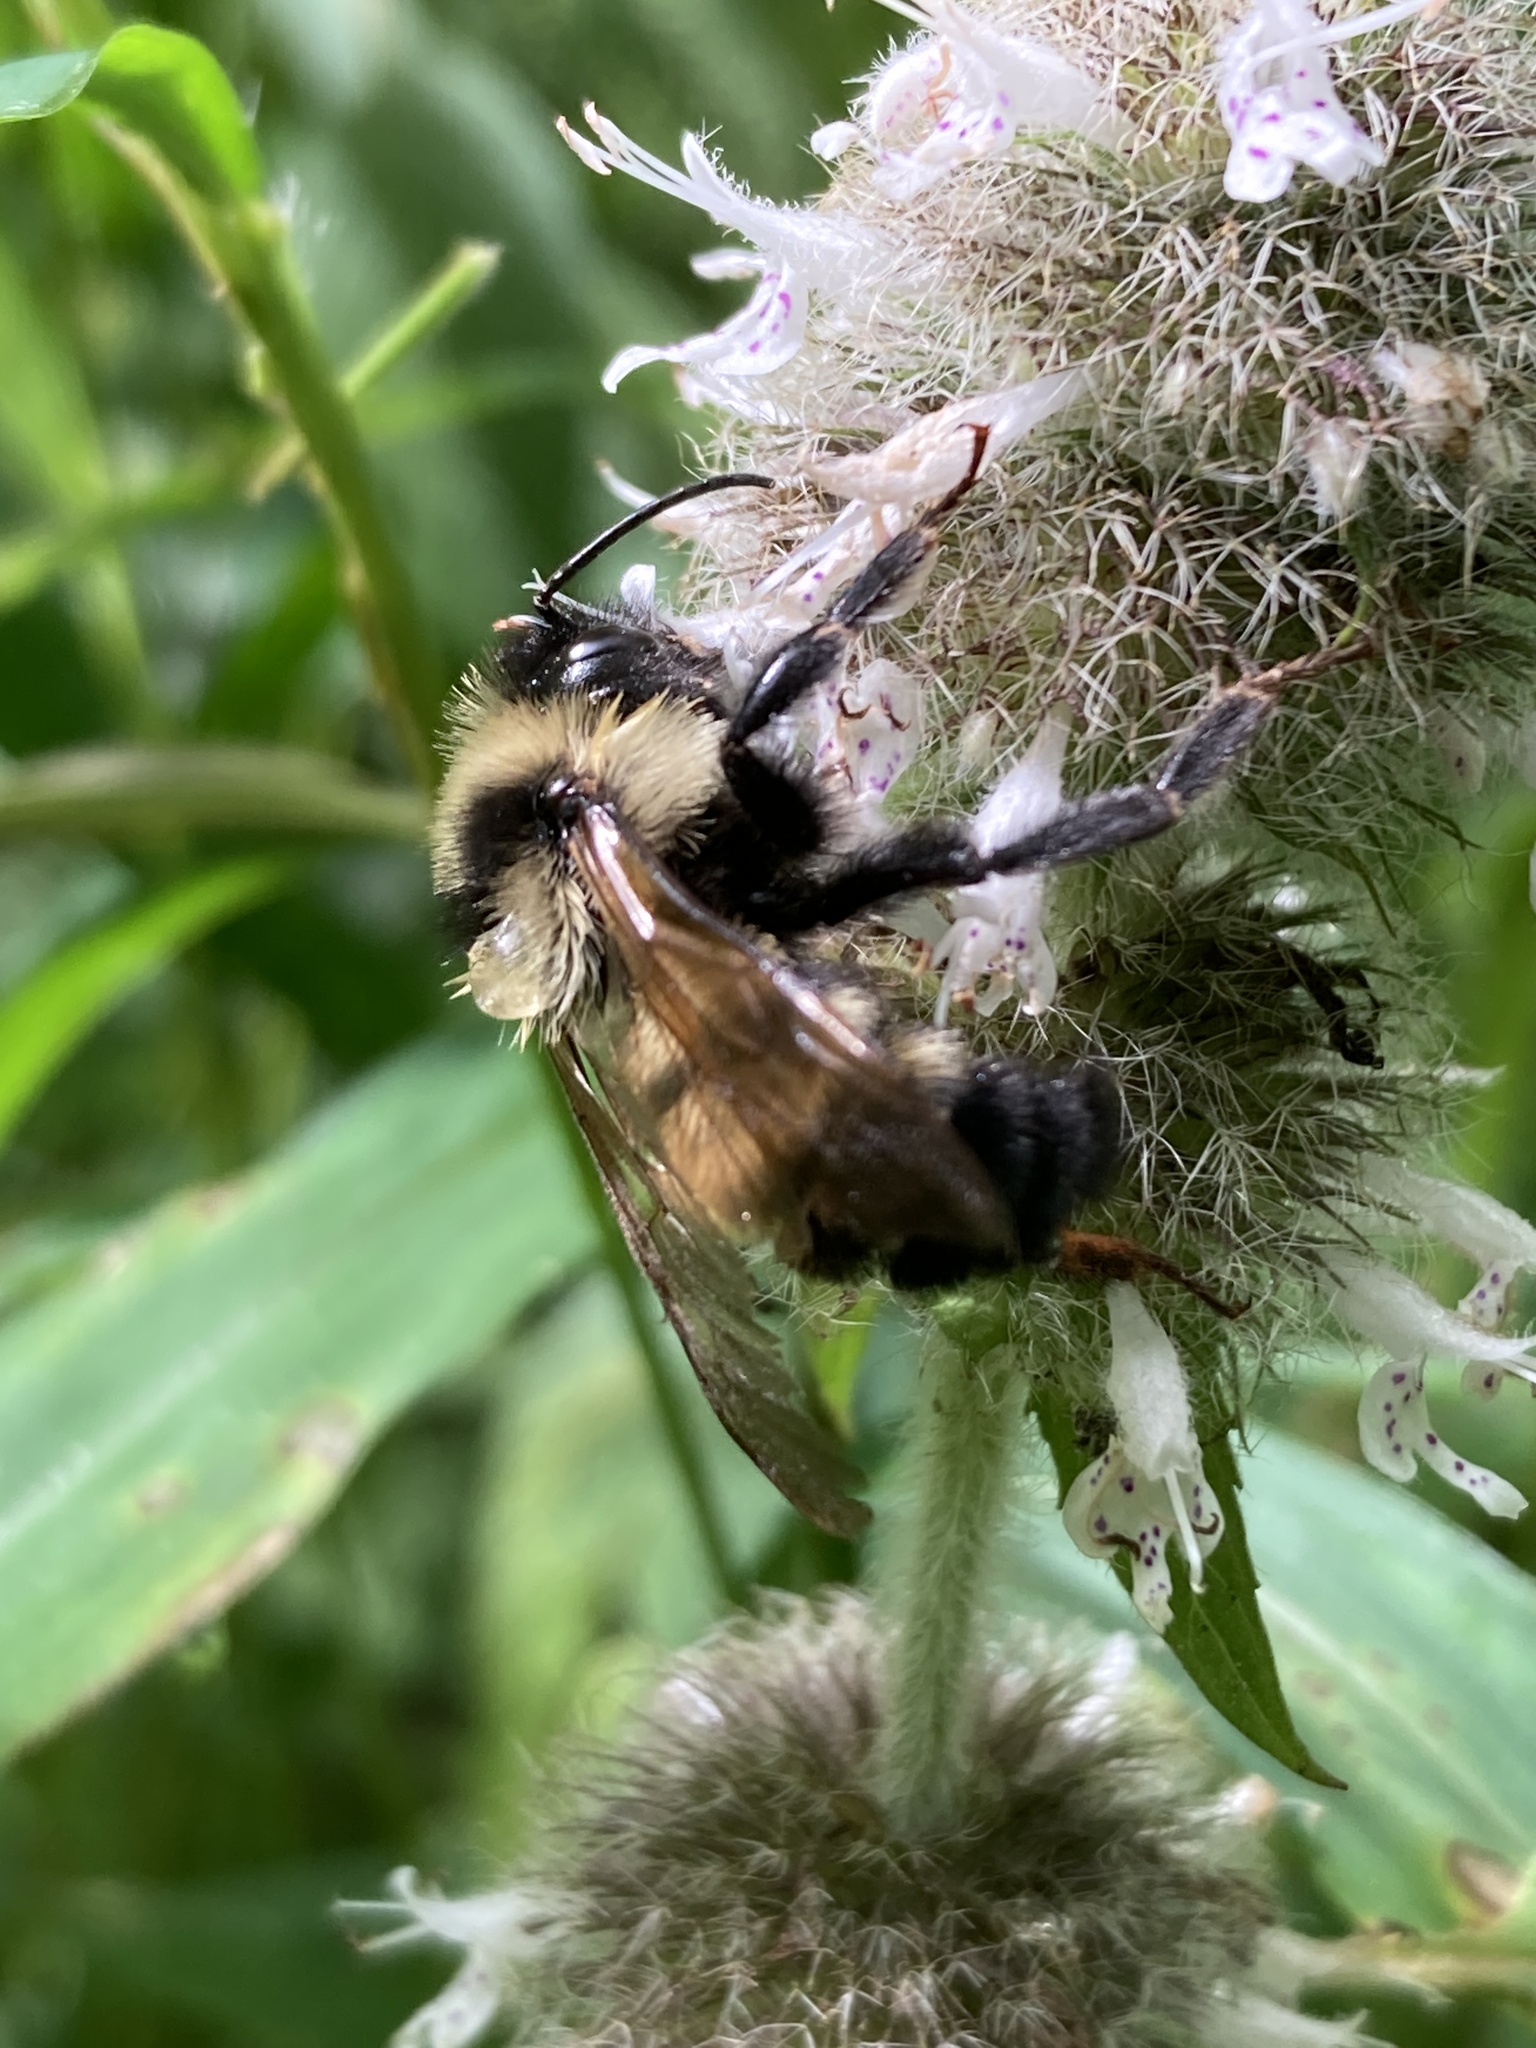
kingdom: Animalia
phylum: Arthropoda
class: Insecta
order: Hymenoptera
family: Apidae
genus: Bombus
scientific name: Bombus citrinus
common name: Lemon cuckoo bumble bee
